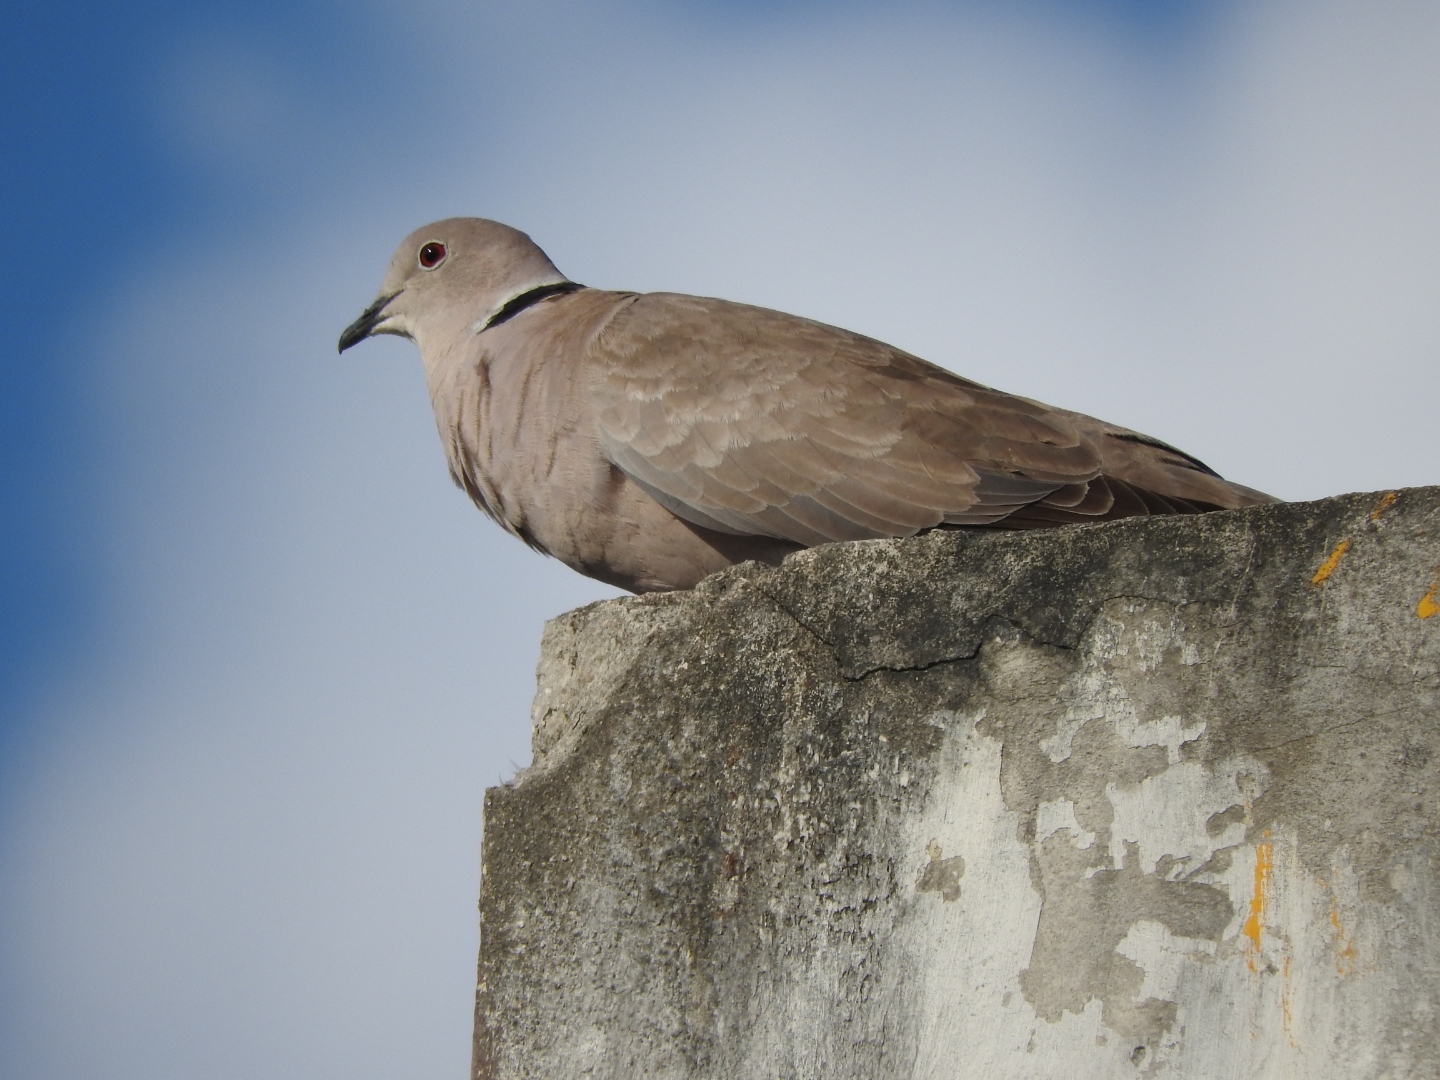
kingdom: Animalia
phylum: Chordata
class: Aves
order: Columbiformes
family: Columbidae
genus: Streptopelia
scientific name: Streptopelia decaocto
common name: Eurasian collared dove
